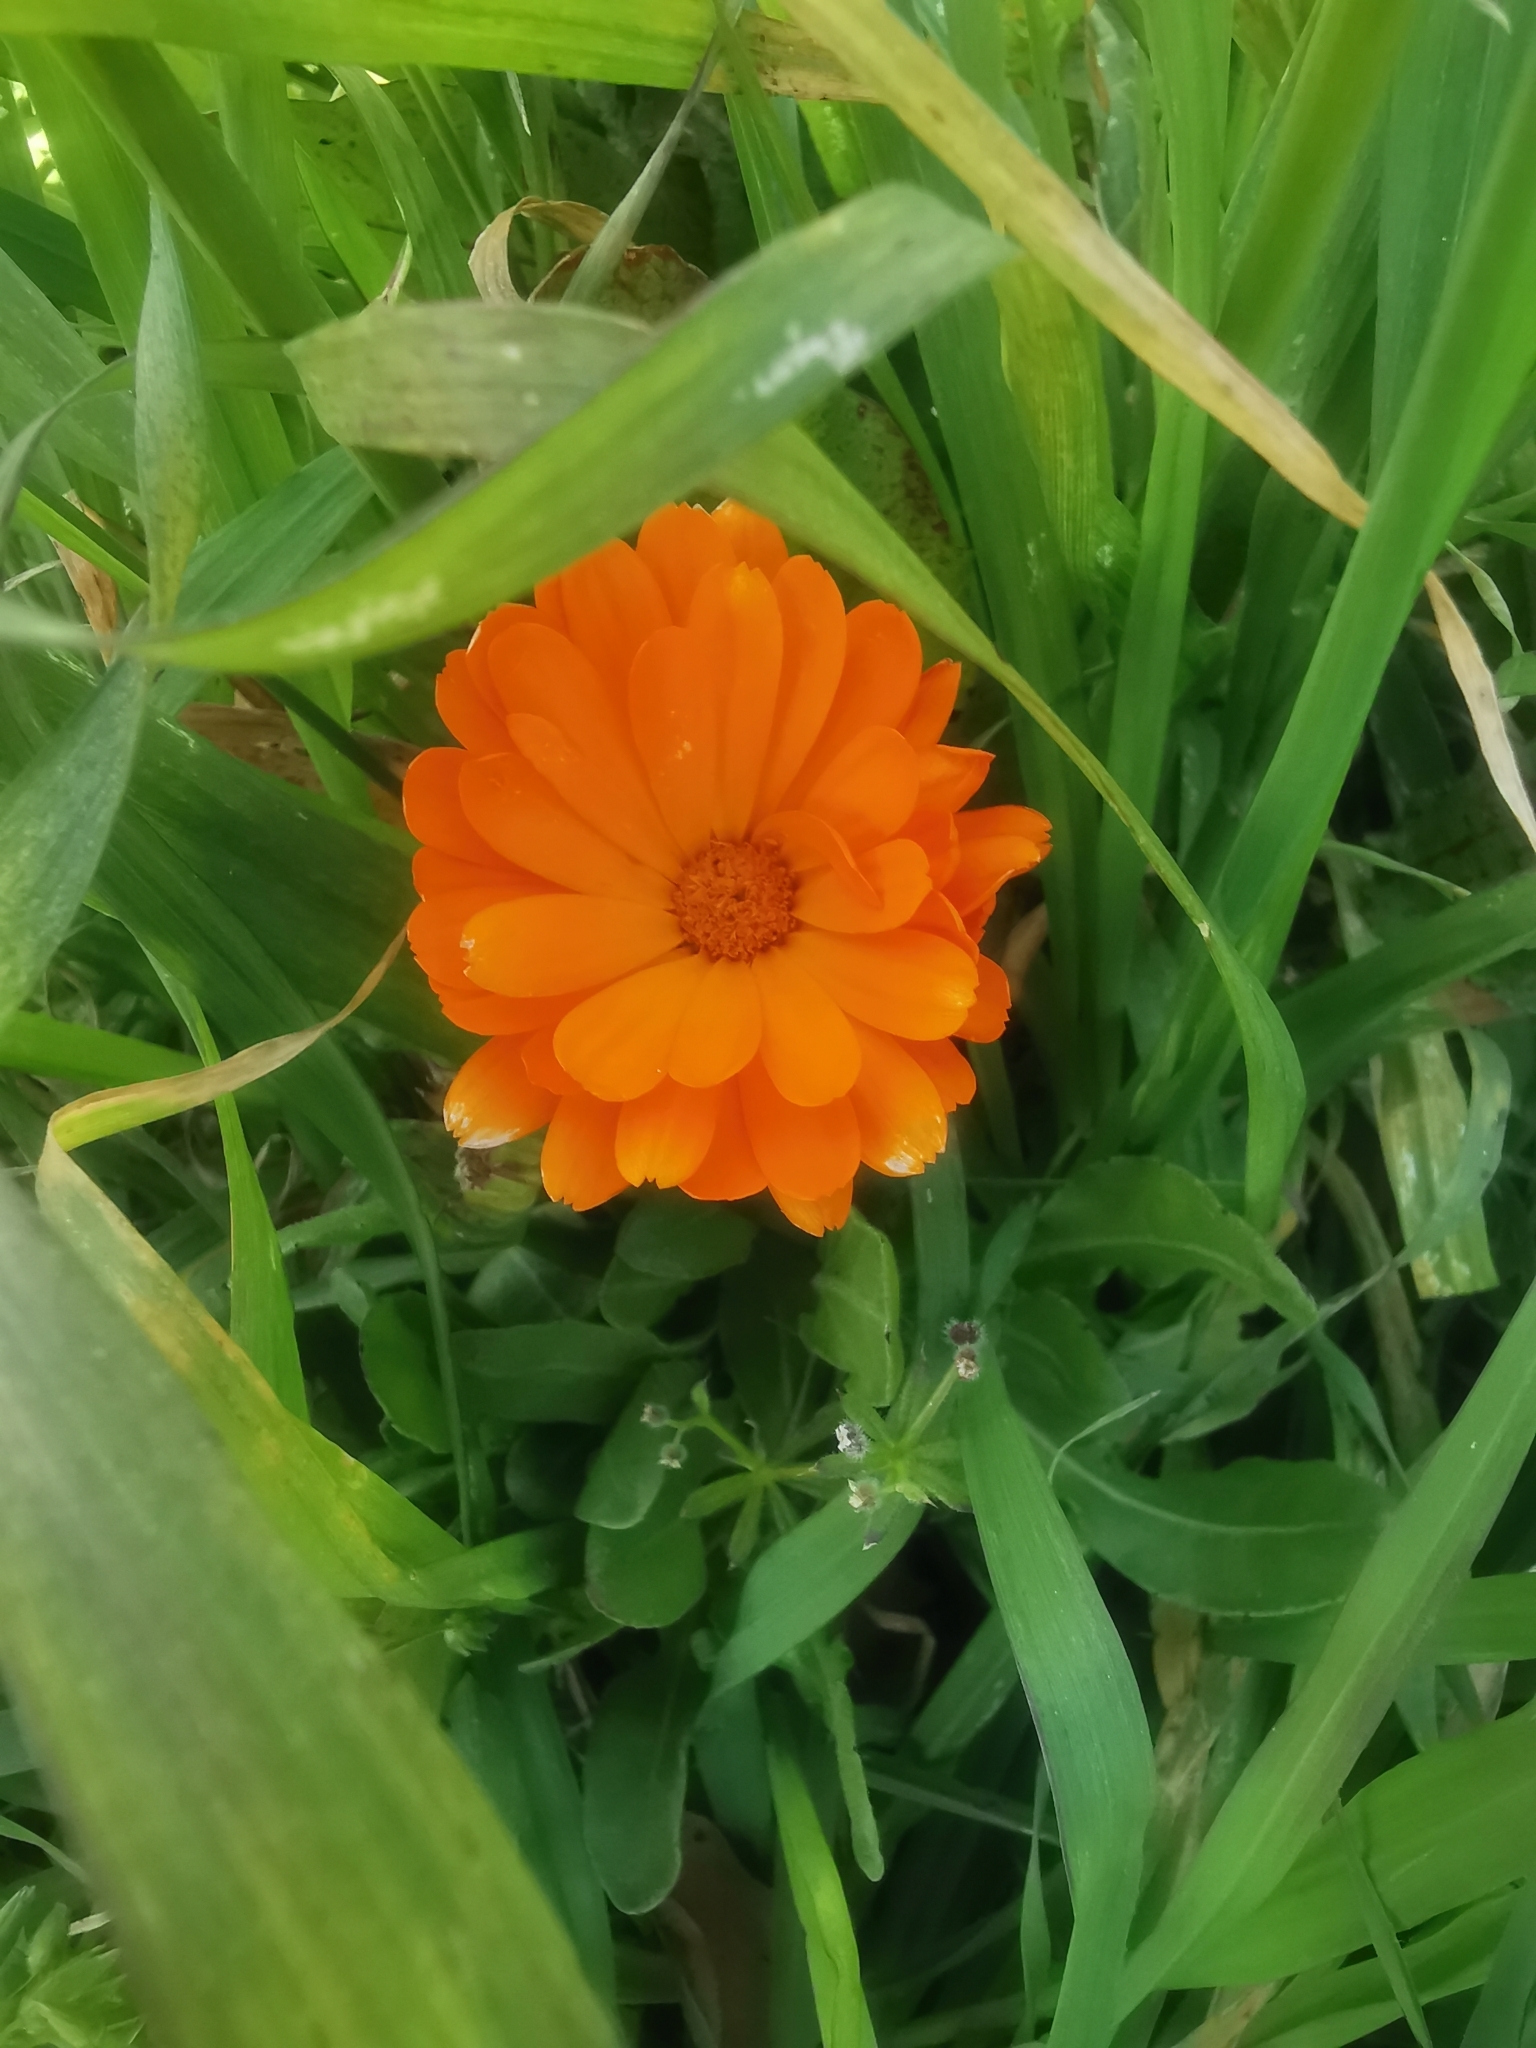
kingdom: Plantae
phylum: Tracheophyta
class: Magnoliopsida
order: Asterales
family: Asteraceae
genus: Calendula
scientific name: Calendula officinalis
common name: Pot marigold
